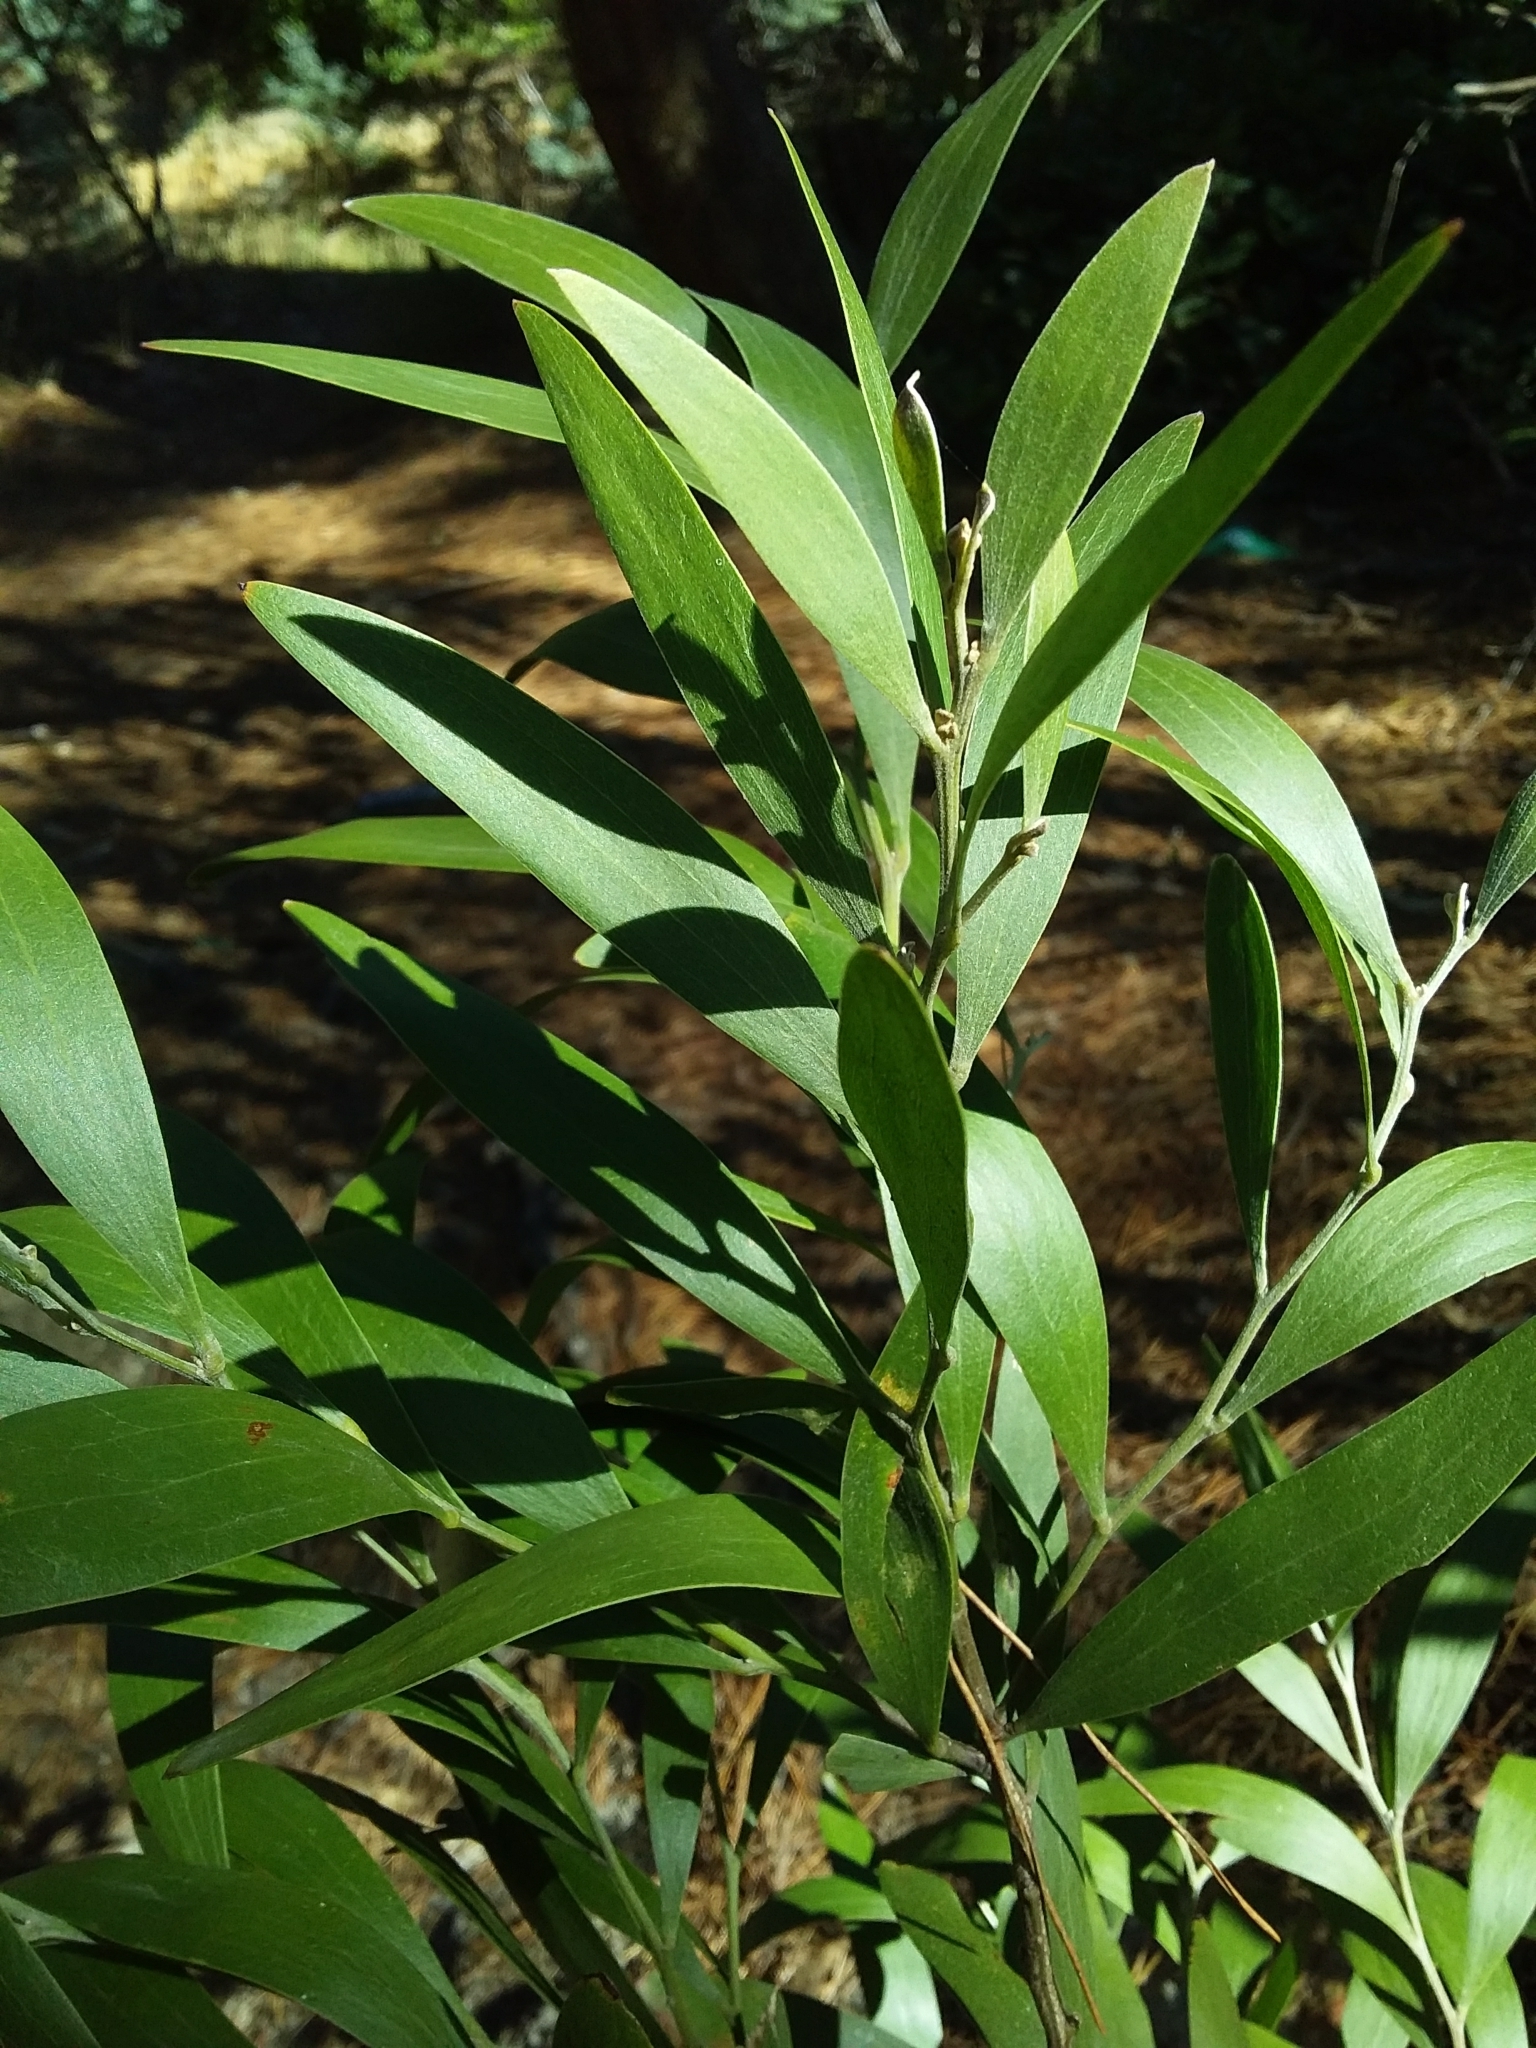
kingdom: Plantae
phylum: Tracheophyta
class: Magnoliopsida
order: Fabales
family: Fabaceae
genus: Acacia
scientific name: Acacia melanoxylon
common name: Blackwood
